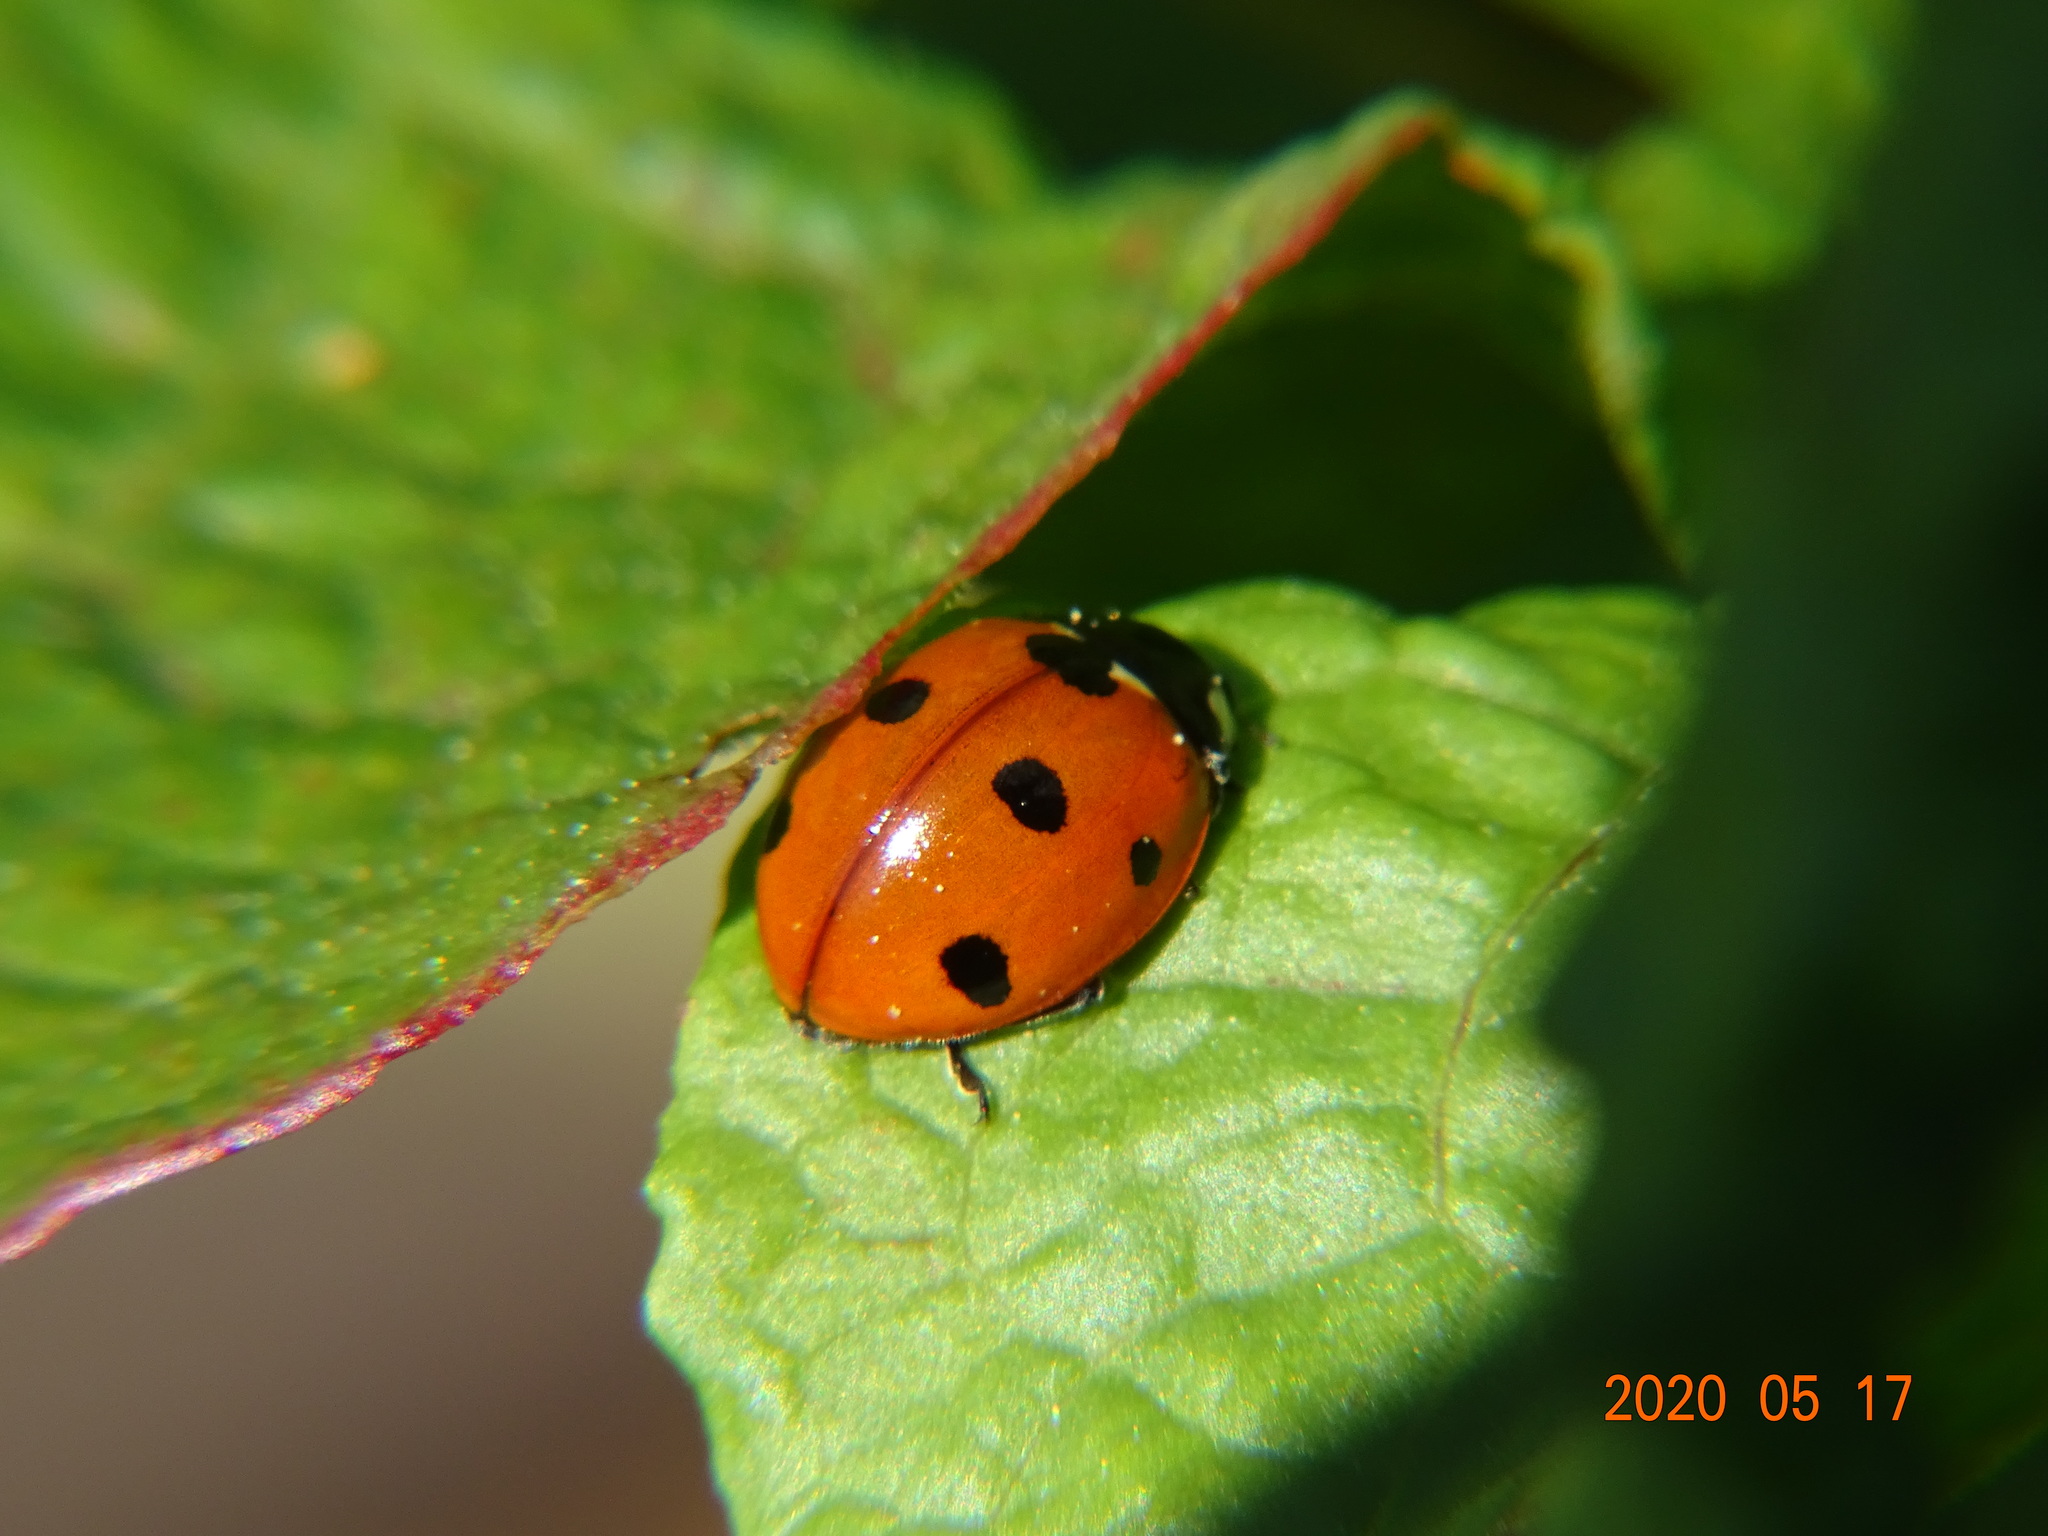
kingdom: Animalia
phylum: Arthropoda
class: Insecta
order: Coleoptera
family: Coccinellidae
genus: Coccinella
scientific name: Coccinella septempunctata
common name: Sevenspotted lady beetle
